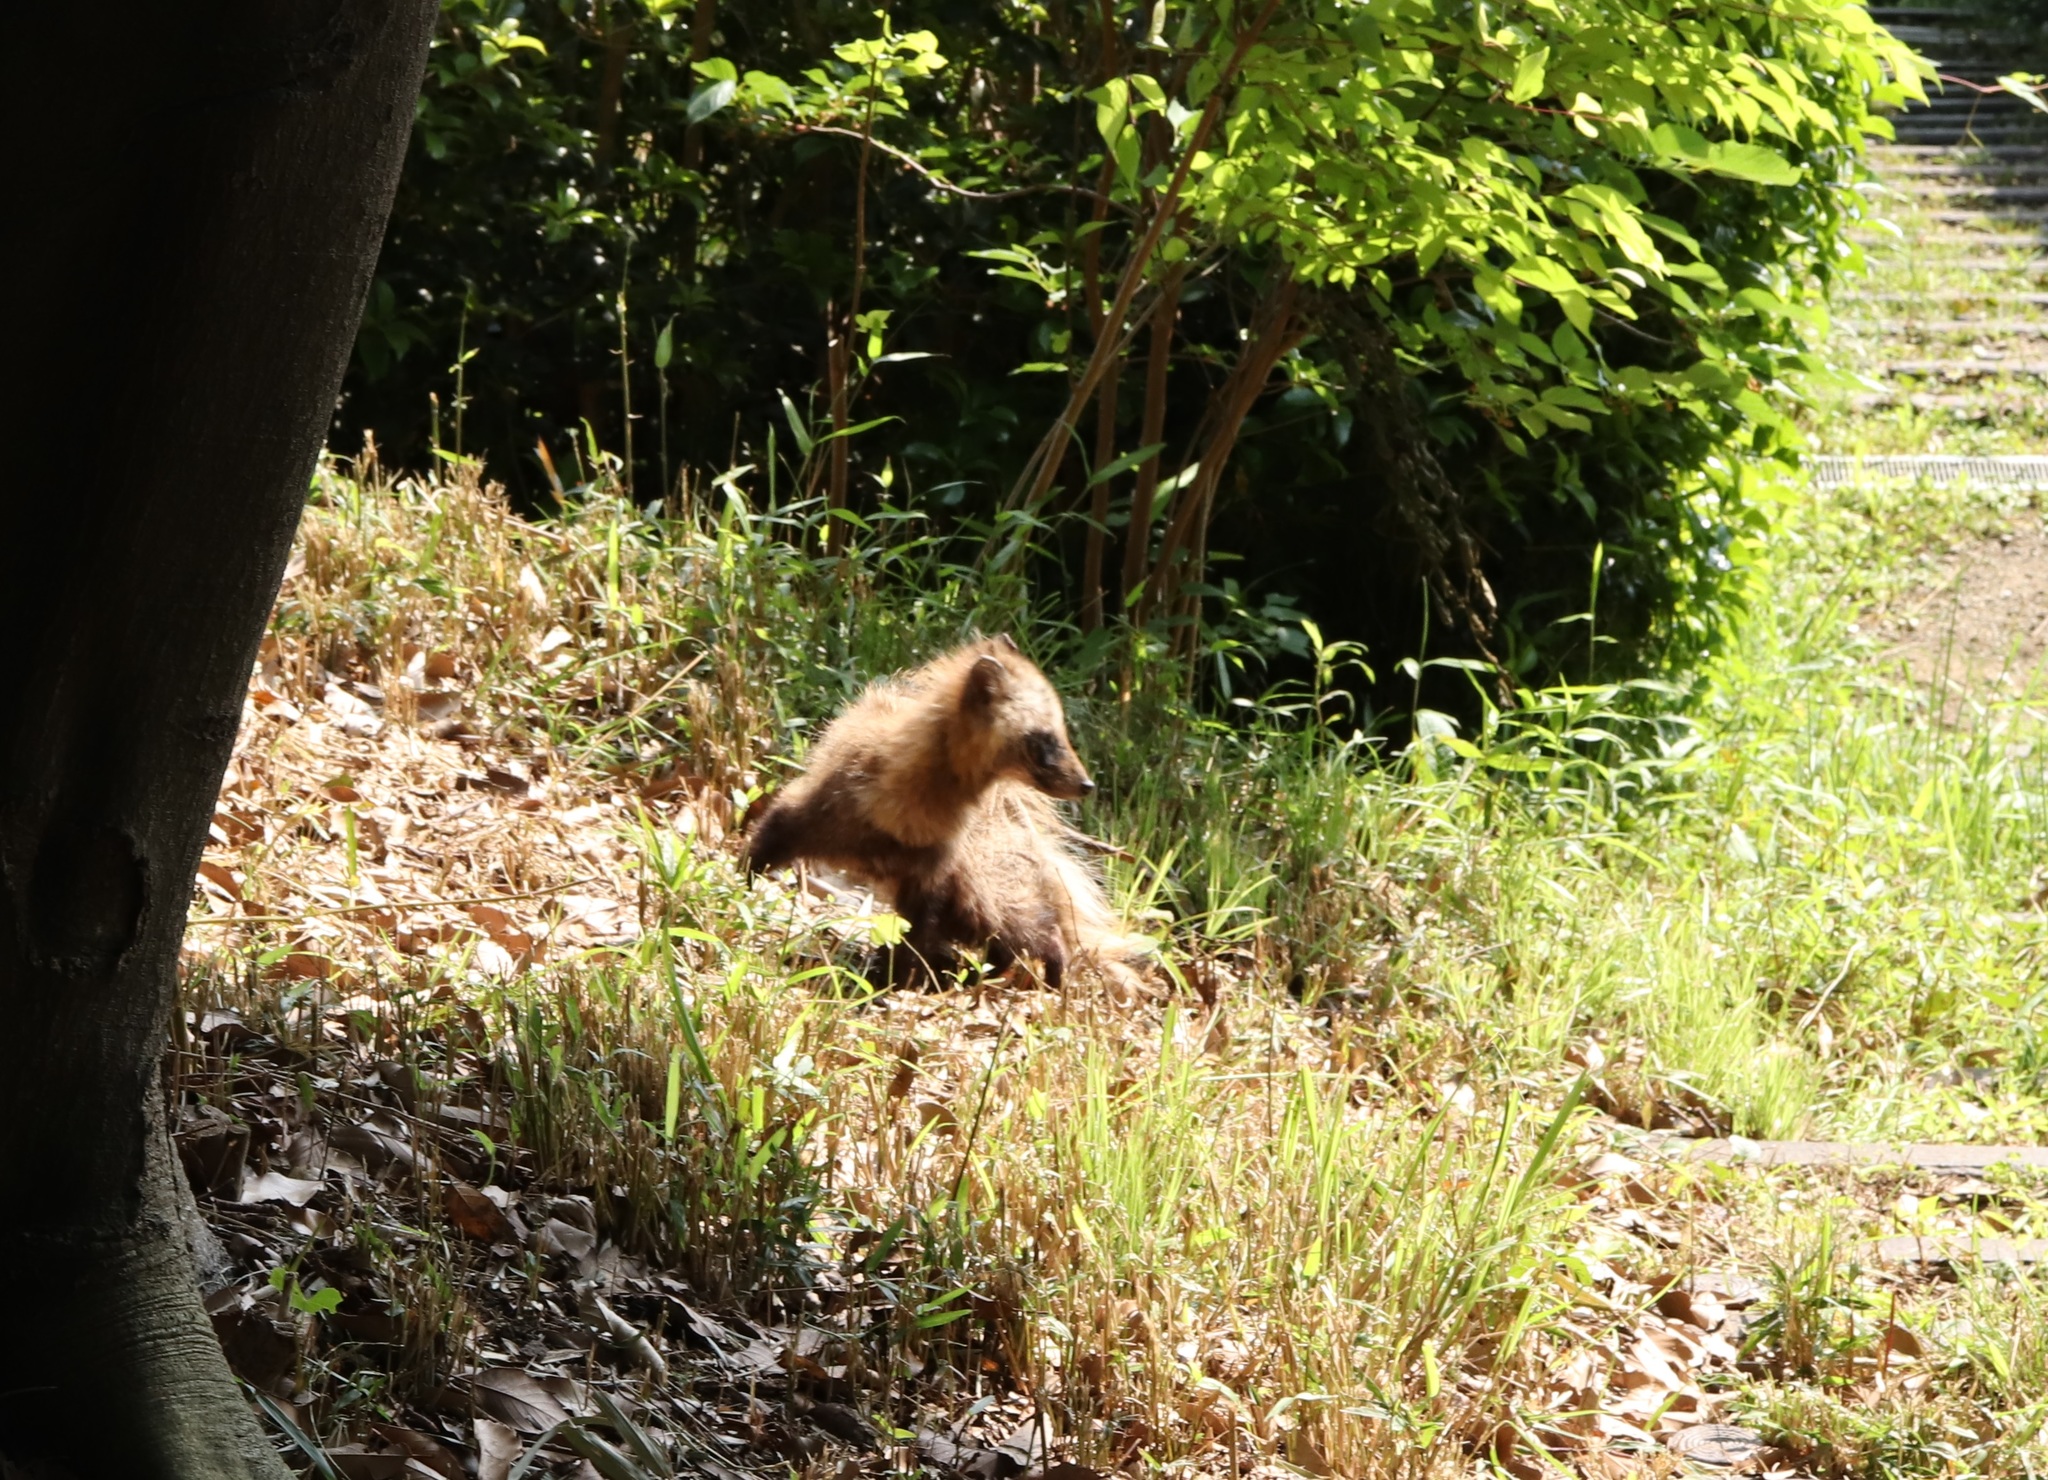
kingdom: Animalia
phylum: Chordata
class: Mammalia
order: Carnivora
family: Canidae
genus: Nyctereutes
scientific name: Nyctereutes
